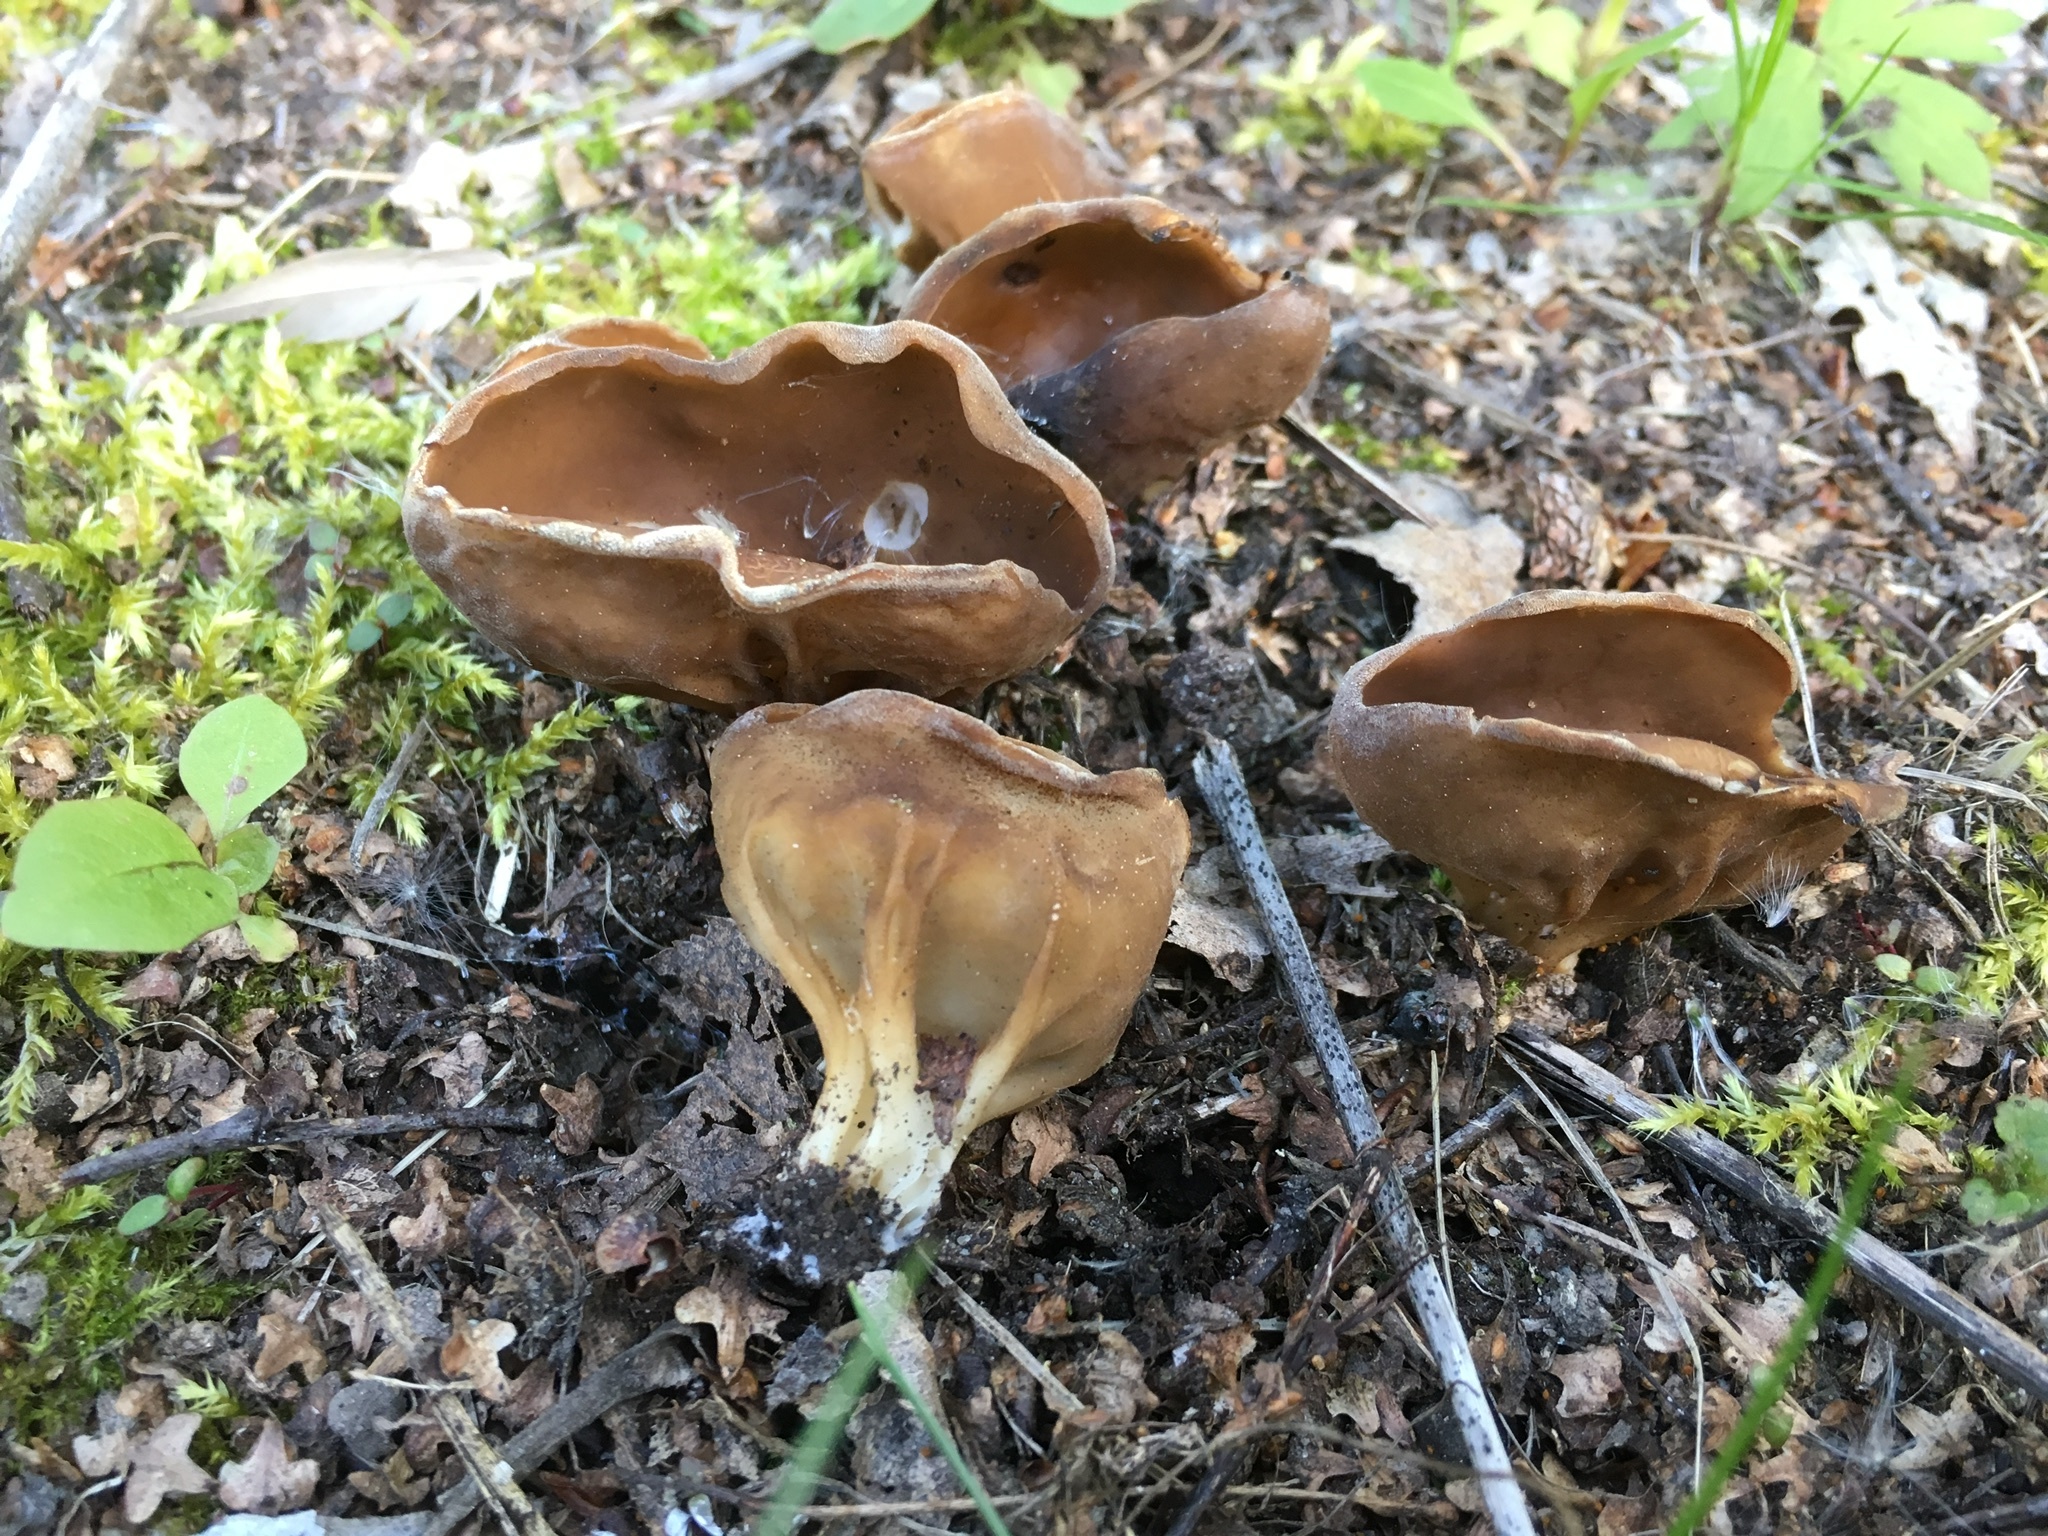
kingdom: Fungi
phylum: Ascomycota
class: Pezizomycetes
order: Pezizales
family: Helvellaceae
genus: Helvella
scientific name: Helvella acetabulum
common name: Vinegar cup
